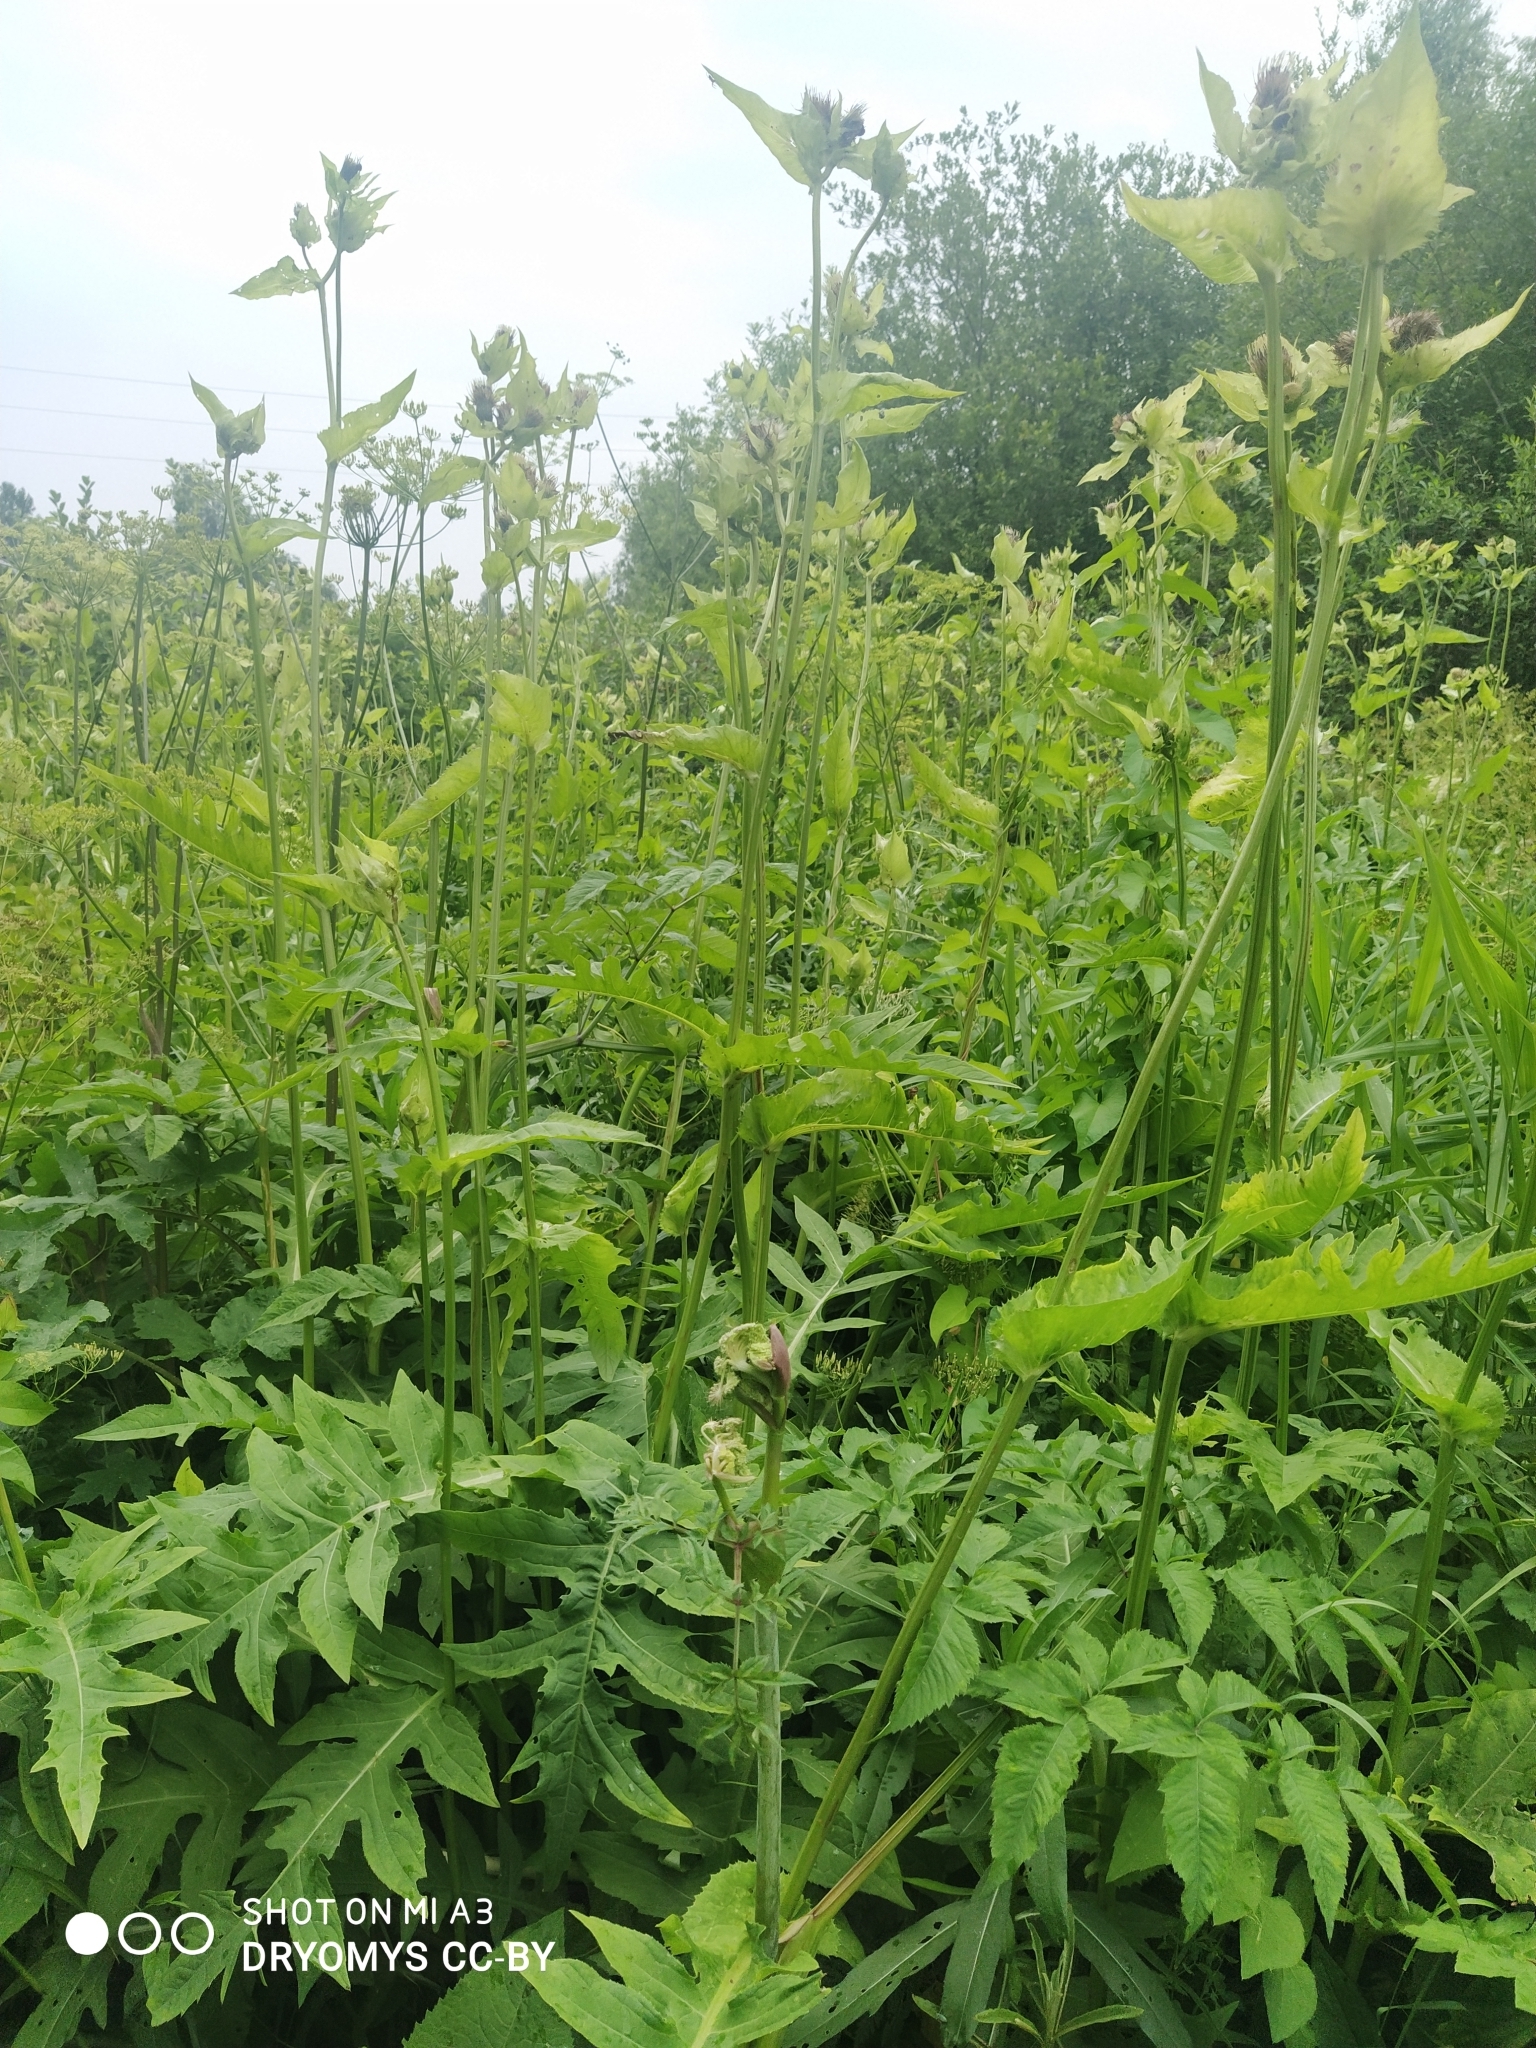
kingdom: Plantae
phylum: Tracheophyta
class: Magnoliopsida
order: Asterales
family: Asteraceae
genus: Cirsium
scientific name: Cirsium oleraceum
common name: Cabbage thistle
